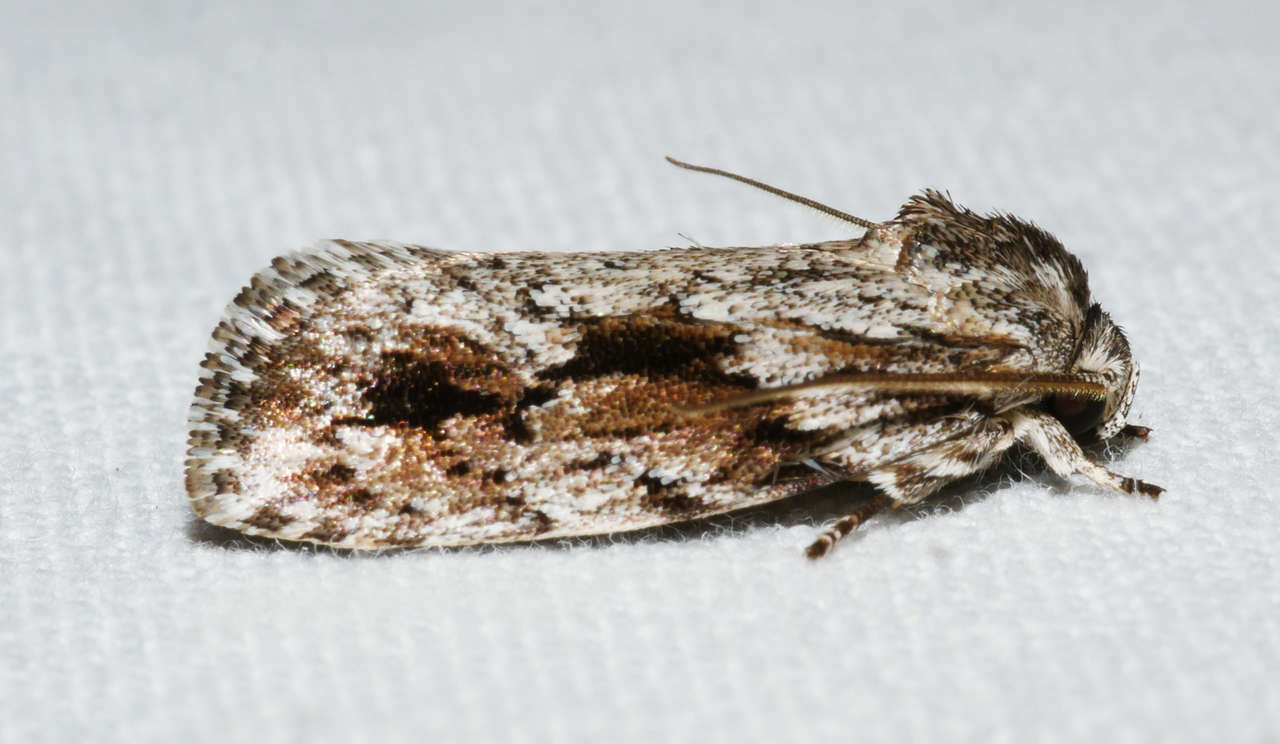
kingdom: Animalia
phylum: Arthropoda
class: Insecta
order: Lepidoptera
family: Depressariidae
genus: Agriophara
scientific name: Agriophara confertella
